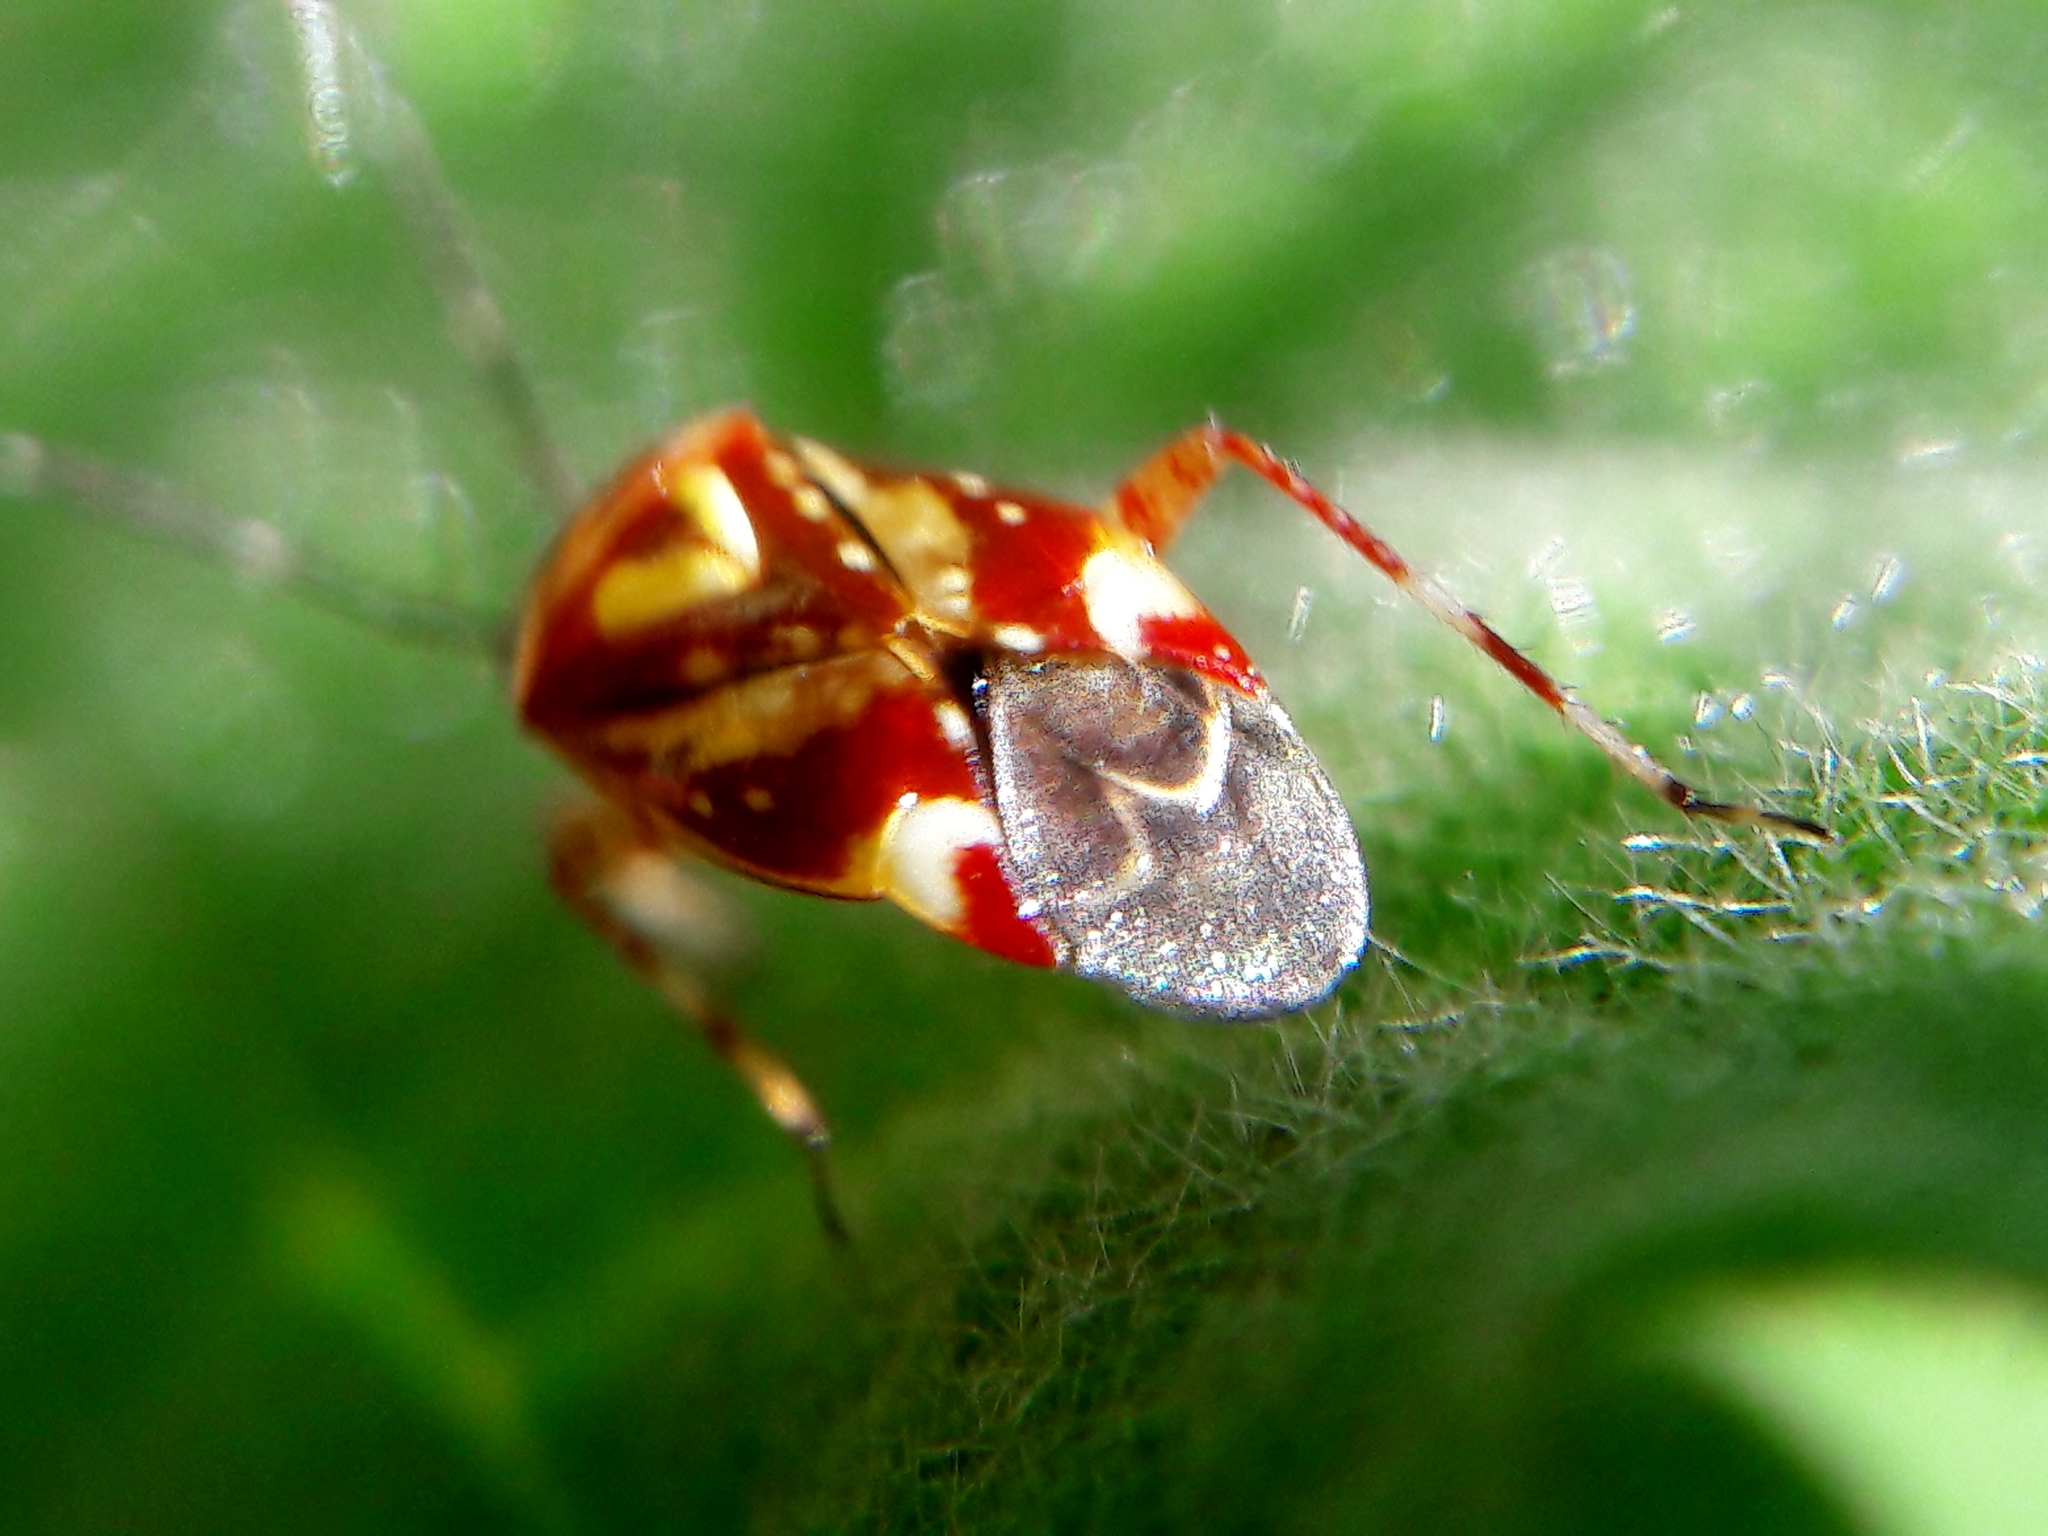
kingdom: Animalia
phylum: Arthropoda
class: Insecta
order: Hemiptera
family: Miridae
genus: Horciasoides
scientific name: Horciasoides nobilellus
